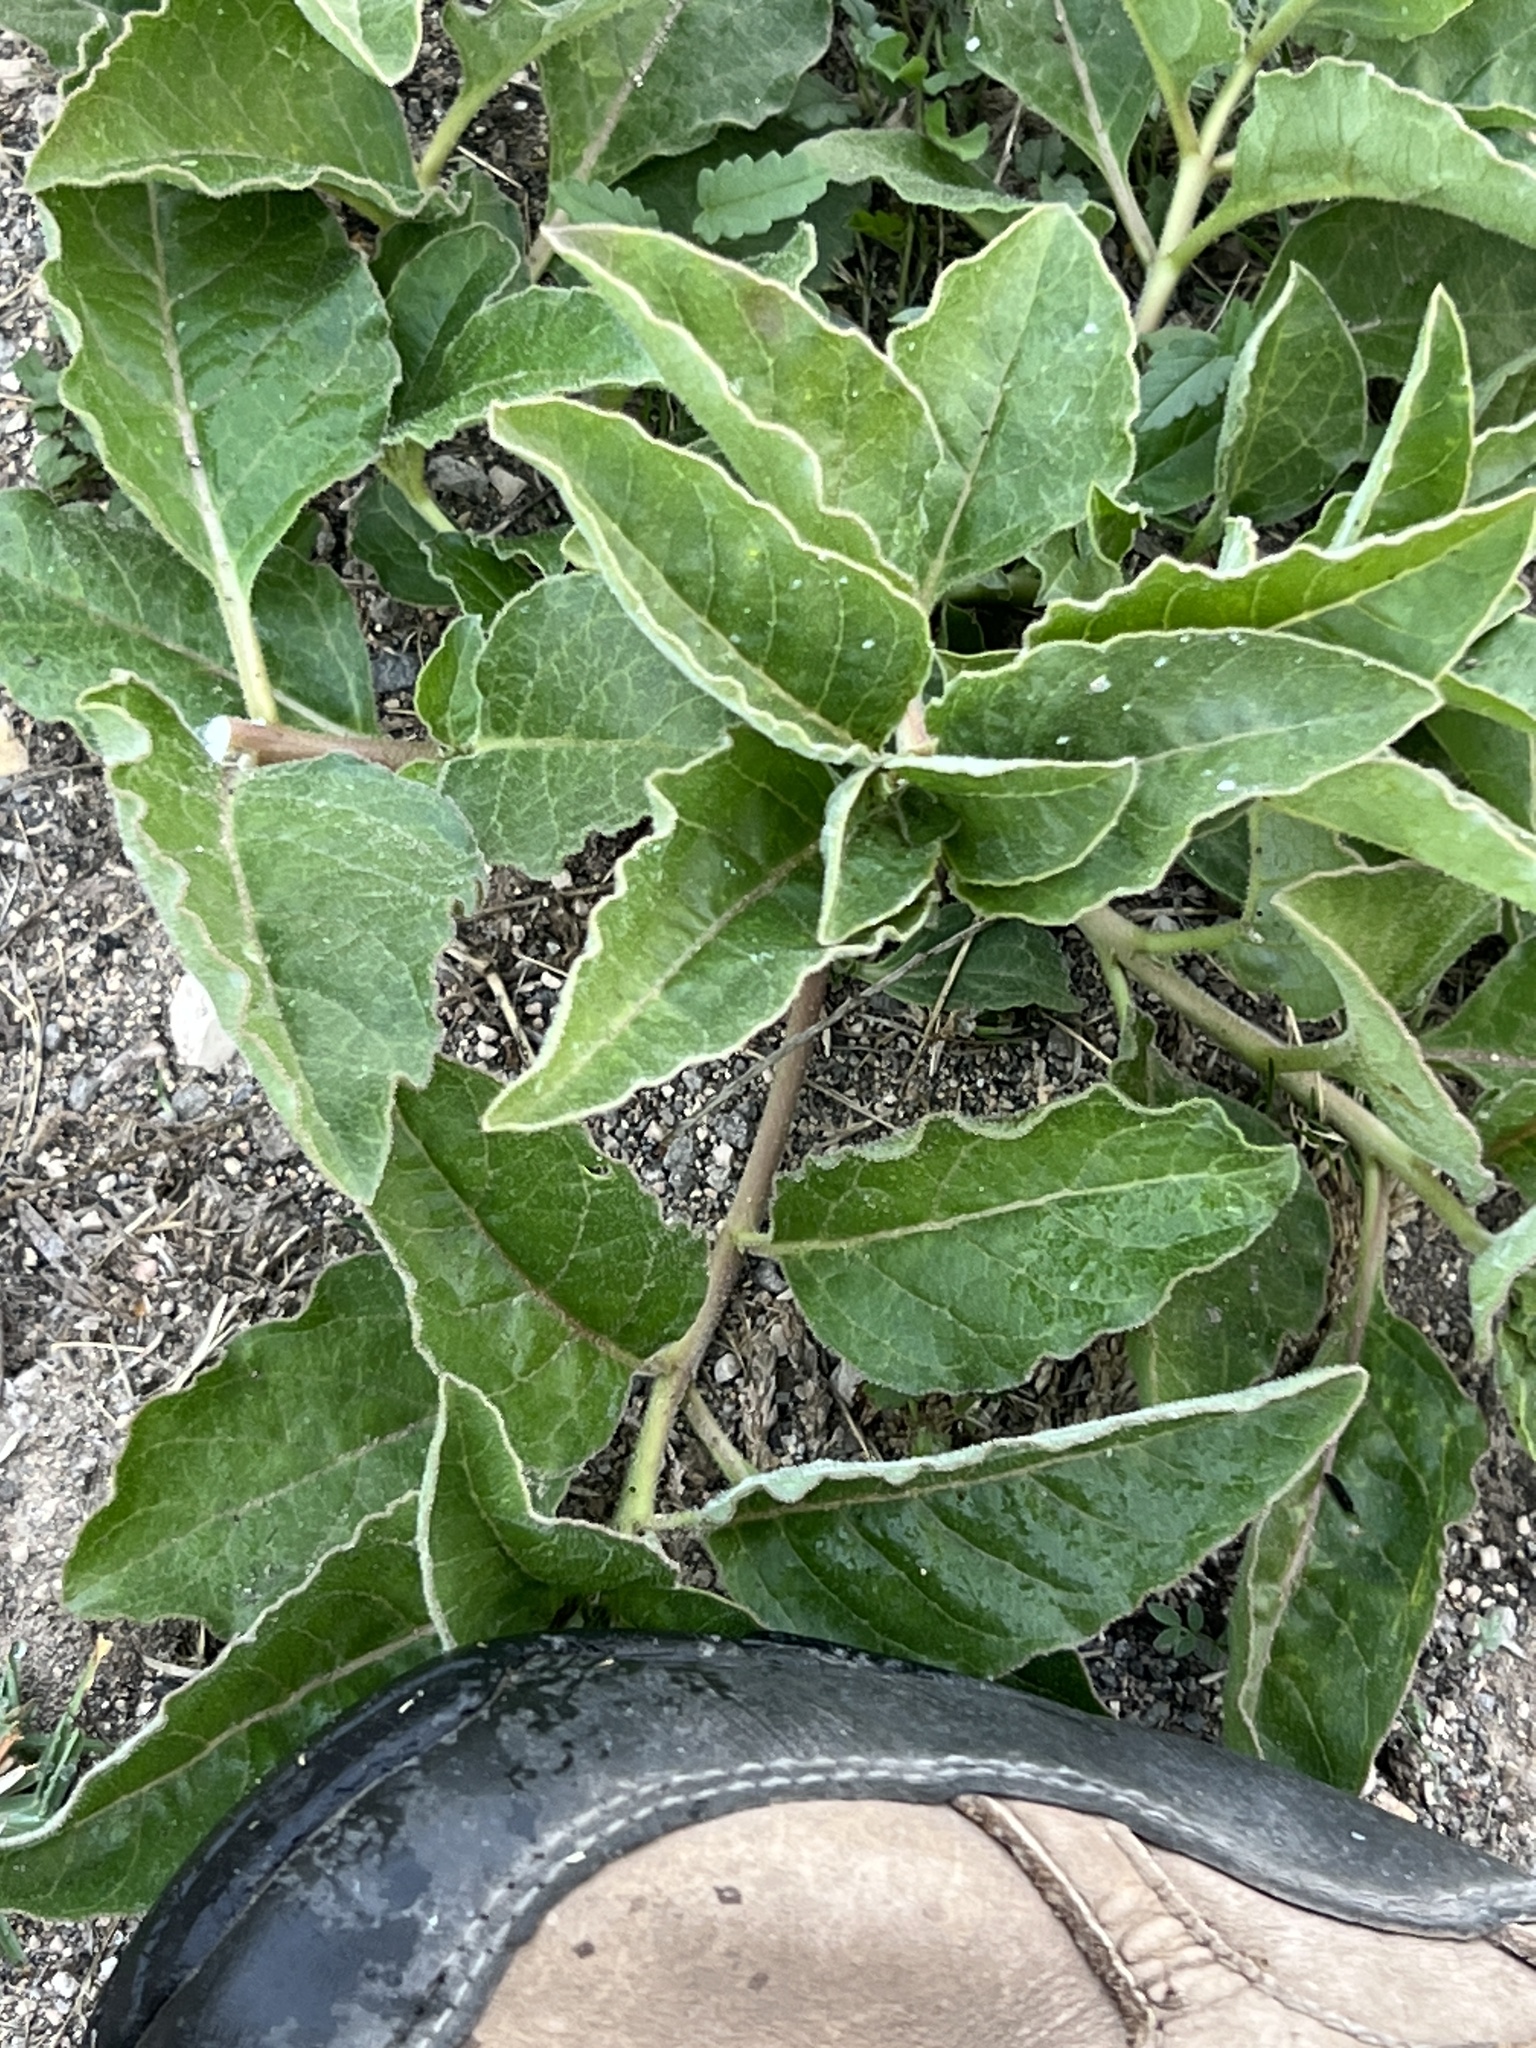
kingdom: Plantae
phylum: Tracheophyta
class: Magnoliopsida
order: Gentianales
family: Apocynaceae
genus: Asclepias
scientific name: Asclepias oenotheroides
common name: Zizotes milkweed
